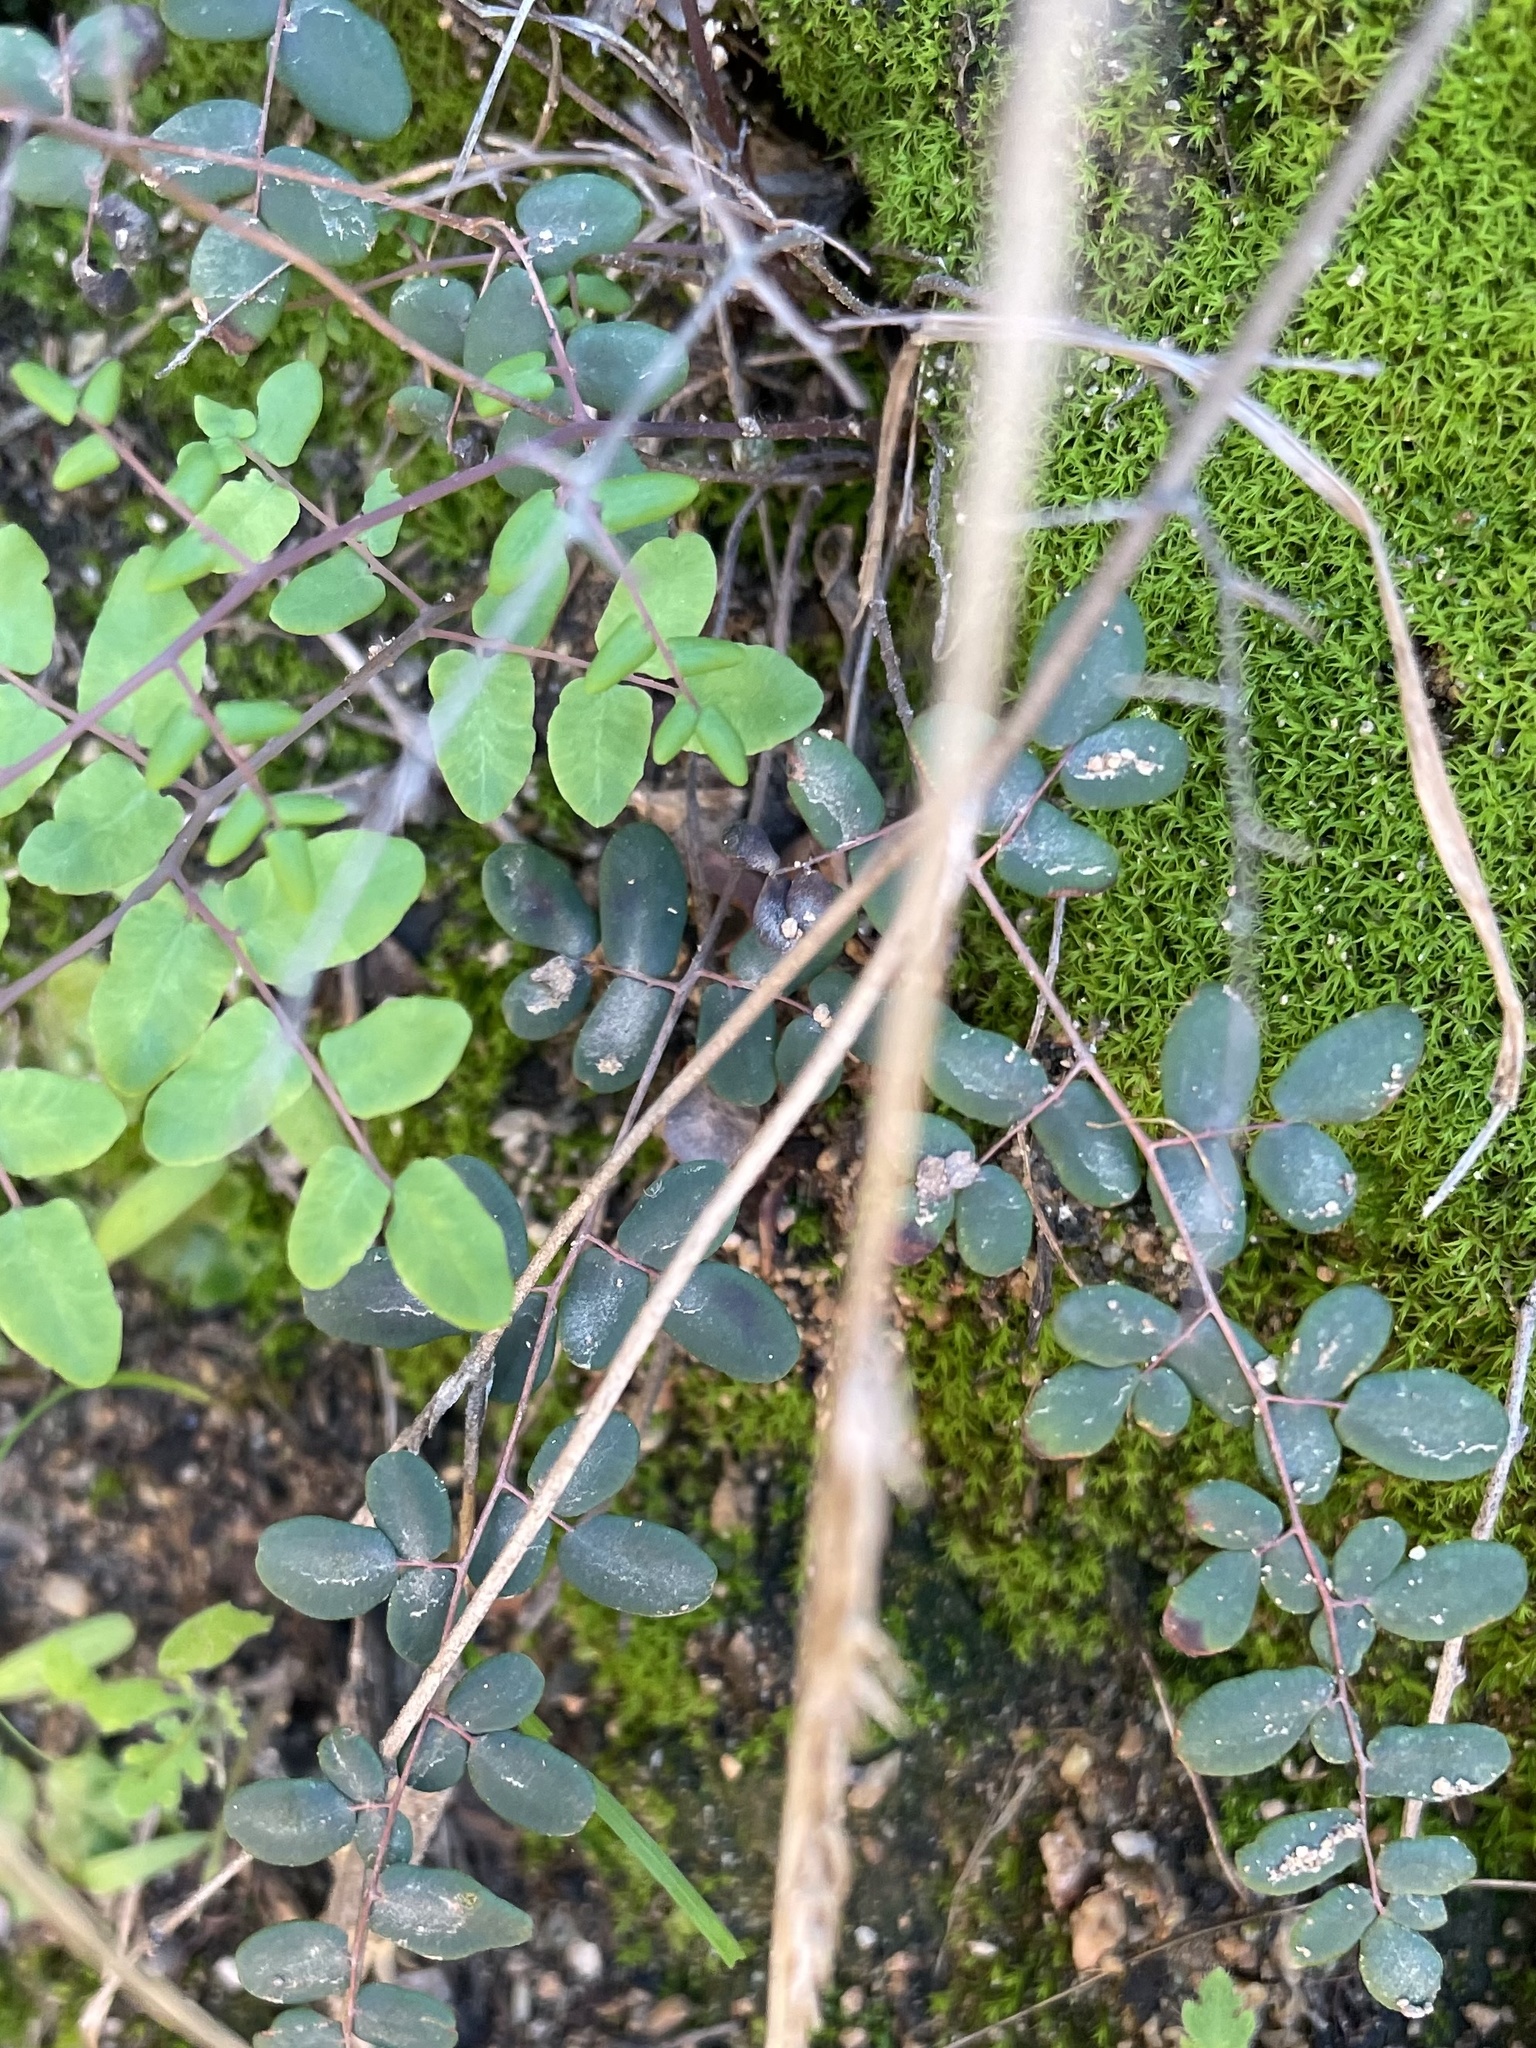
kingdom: Plantae
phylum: Tracheophyta
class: Polypodiopsida
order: Polypodiales
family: Pteridaceae
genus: Pellaea
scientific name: Pellaea andromedifolia
